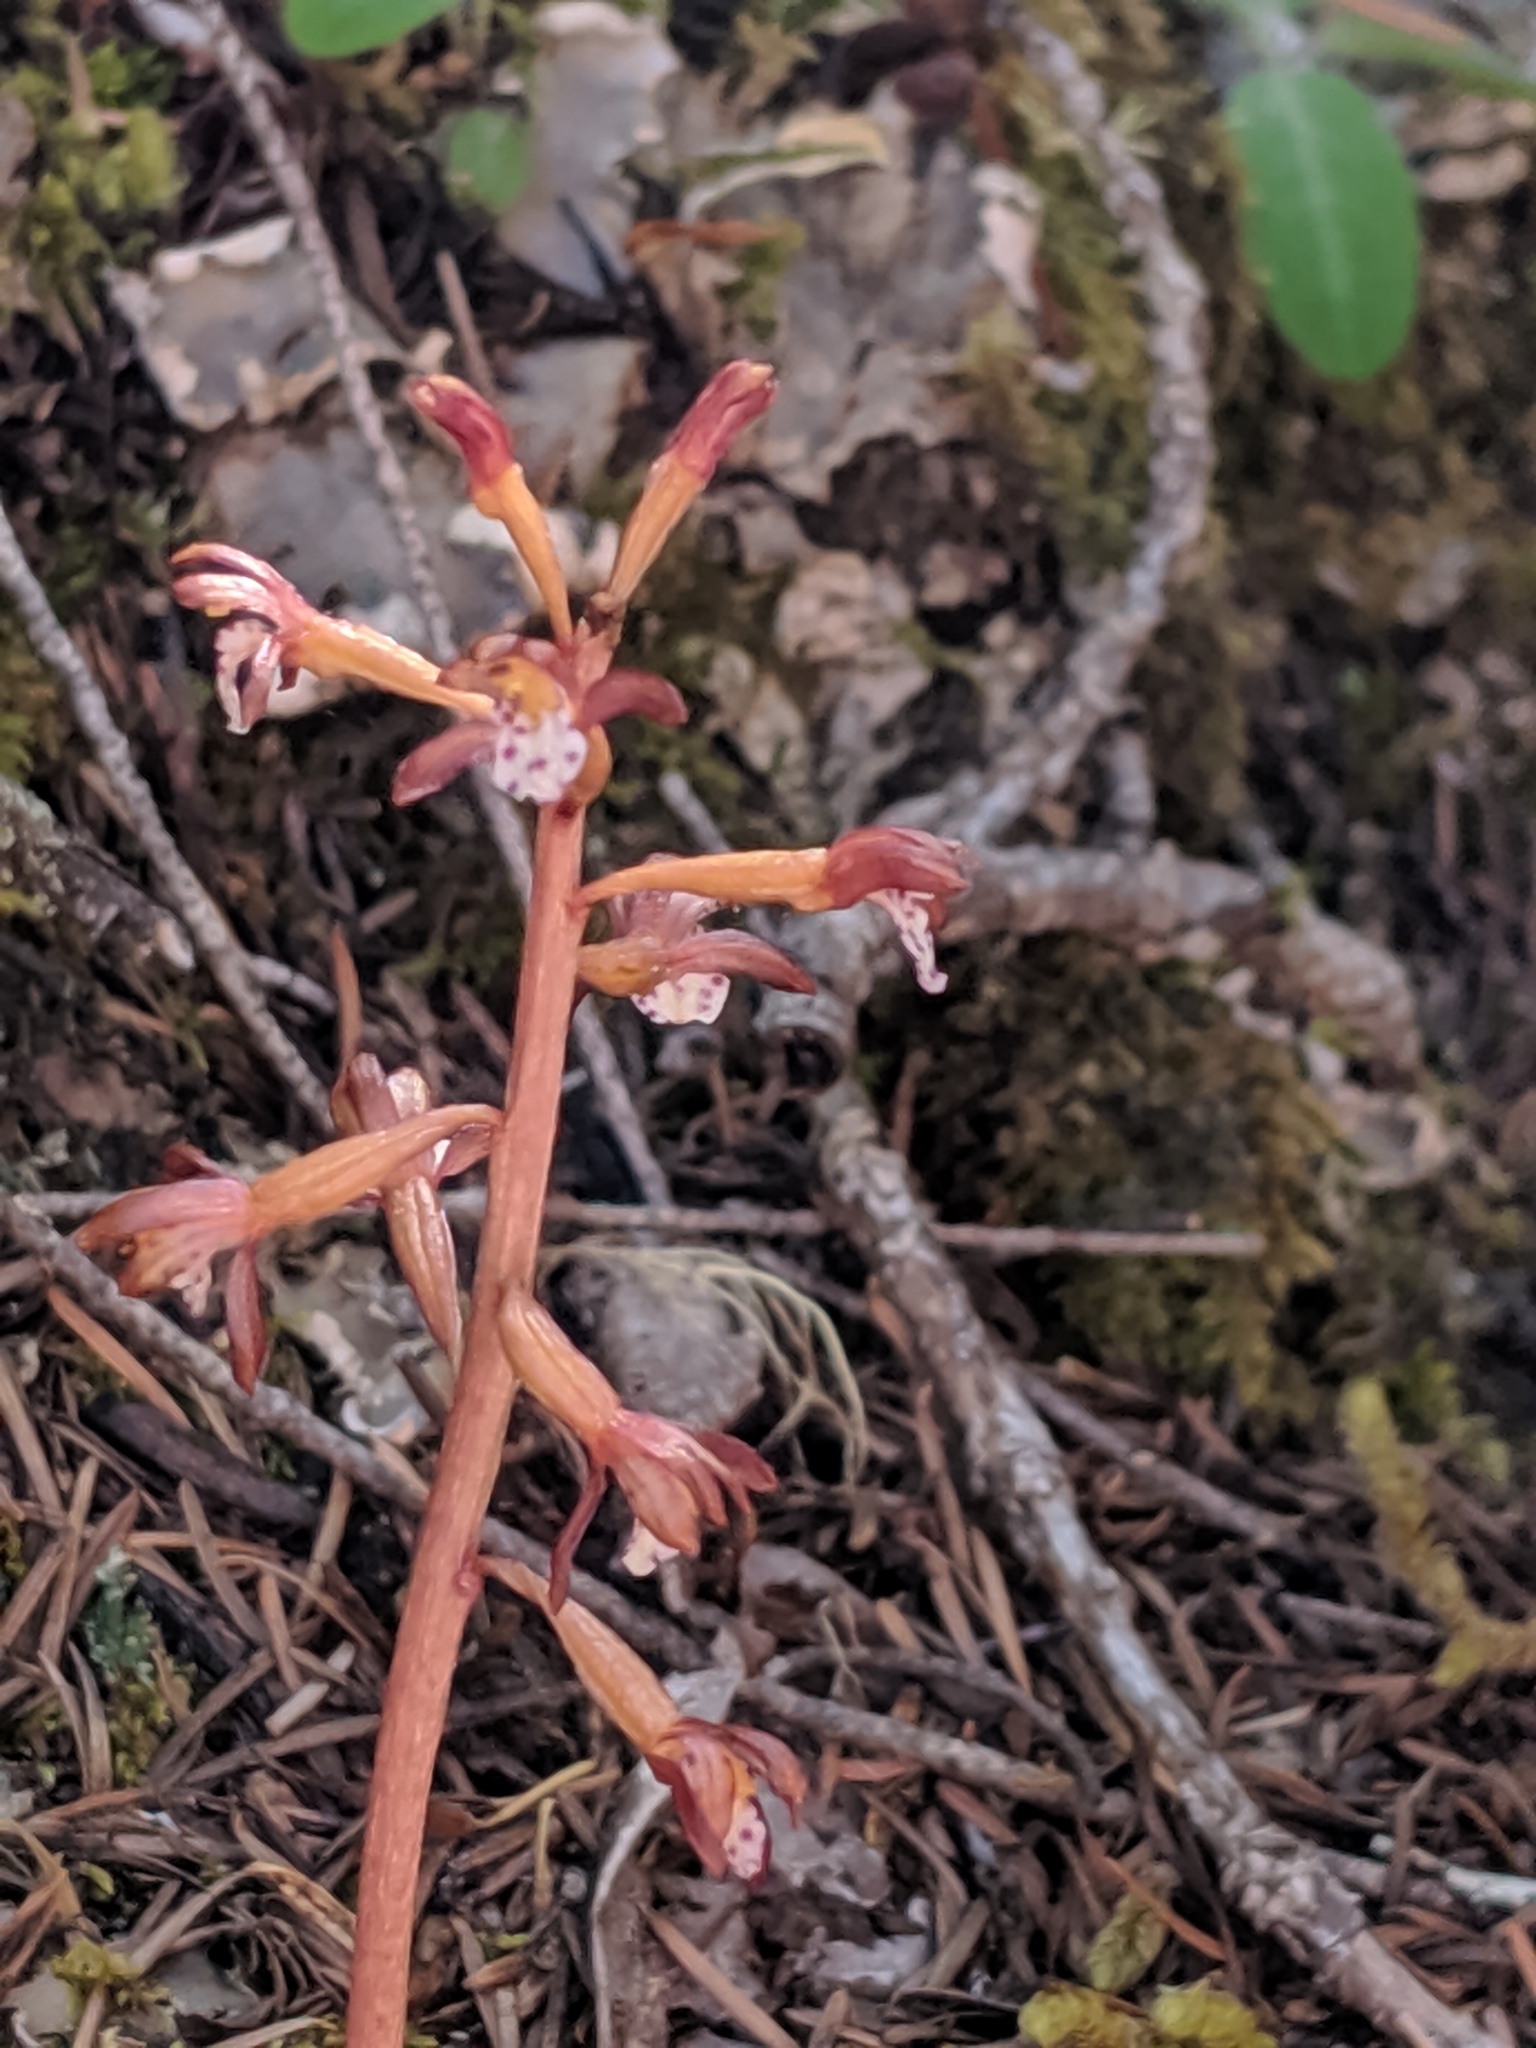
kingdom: Plantae
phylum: Tracheophyta
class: Liliopsida
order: Asparagales
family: Orchidaceae
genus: Corallorhiza
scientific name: Corallorhiza maculata
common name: Spotted coralroot
